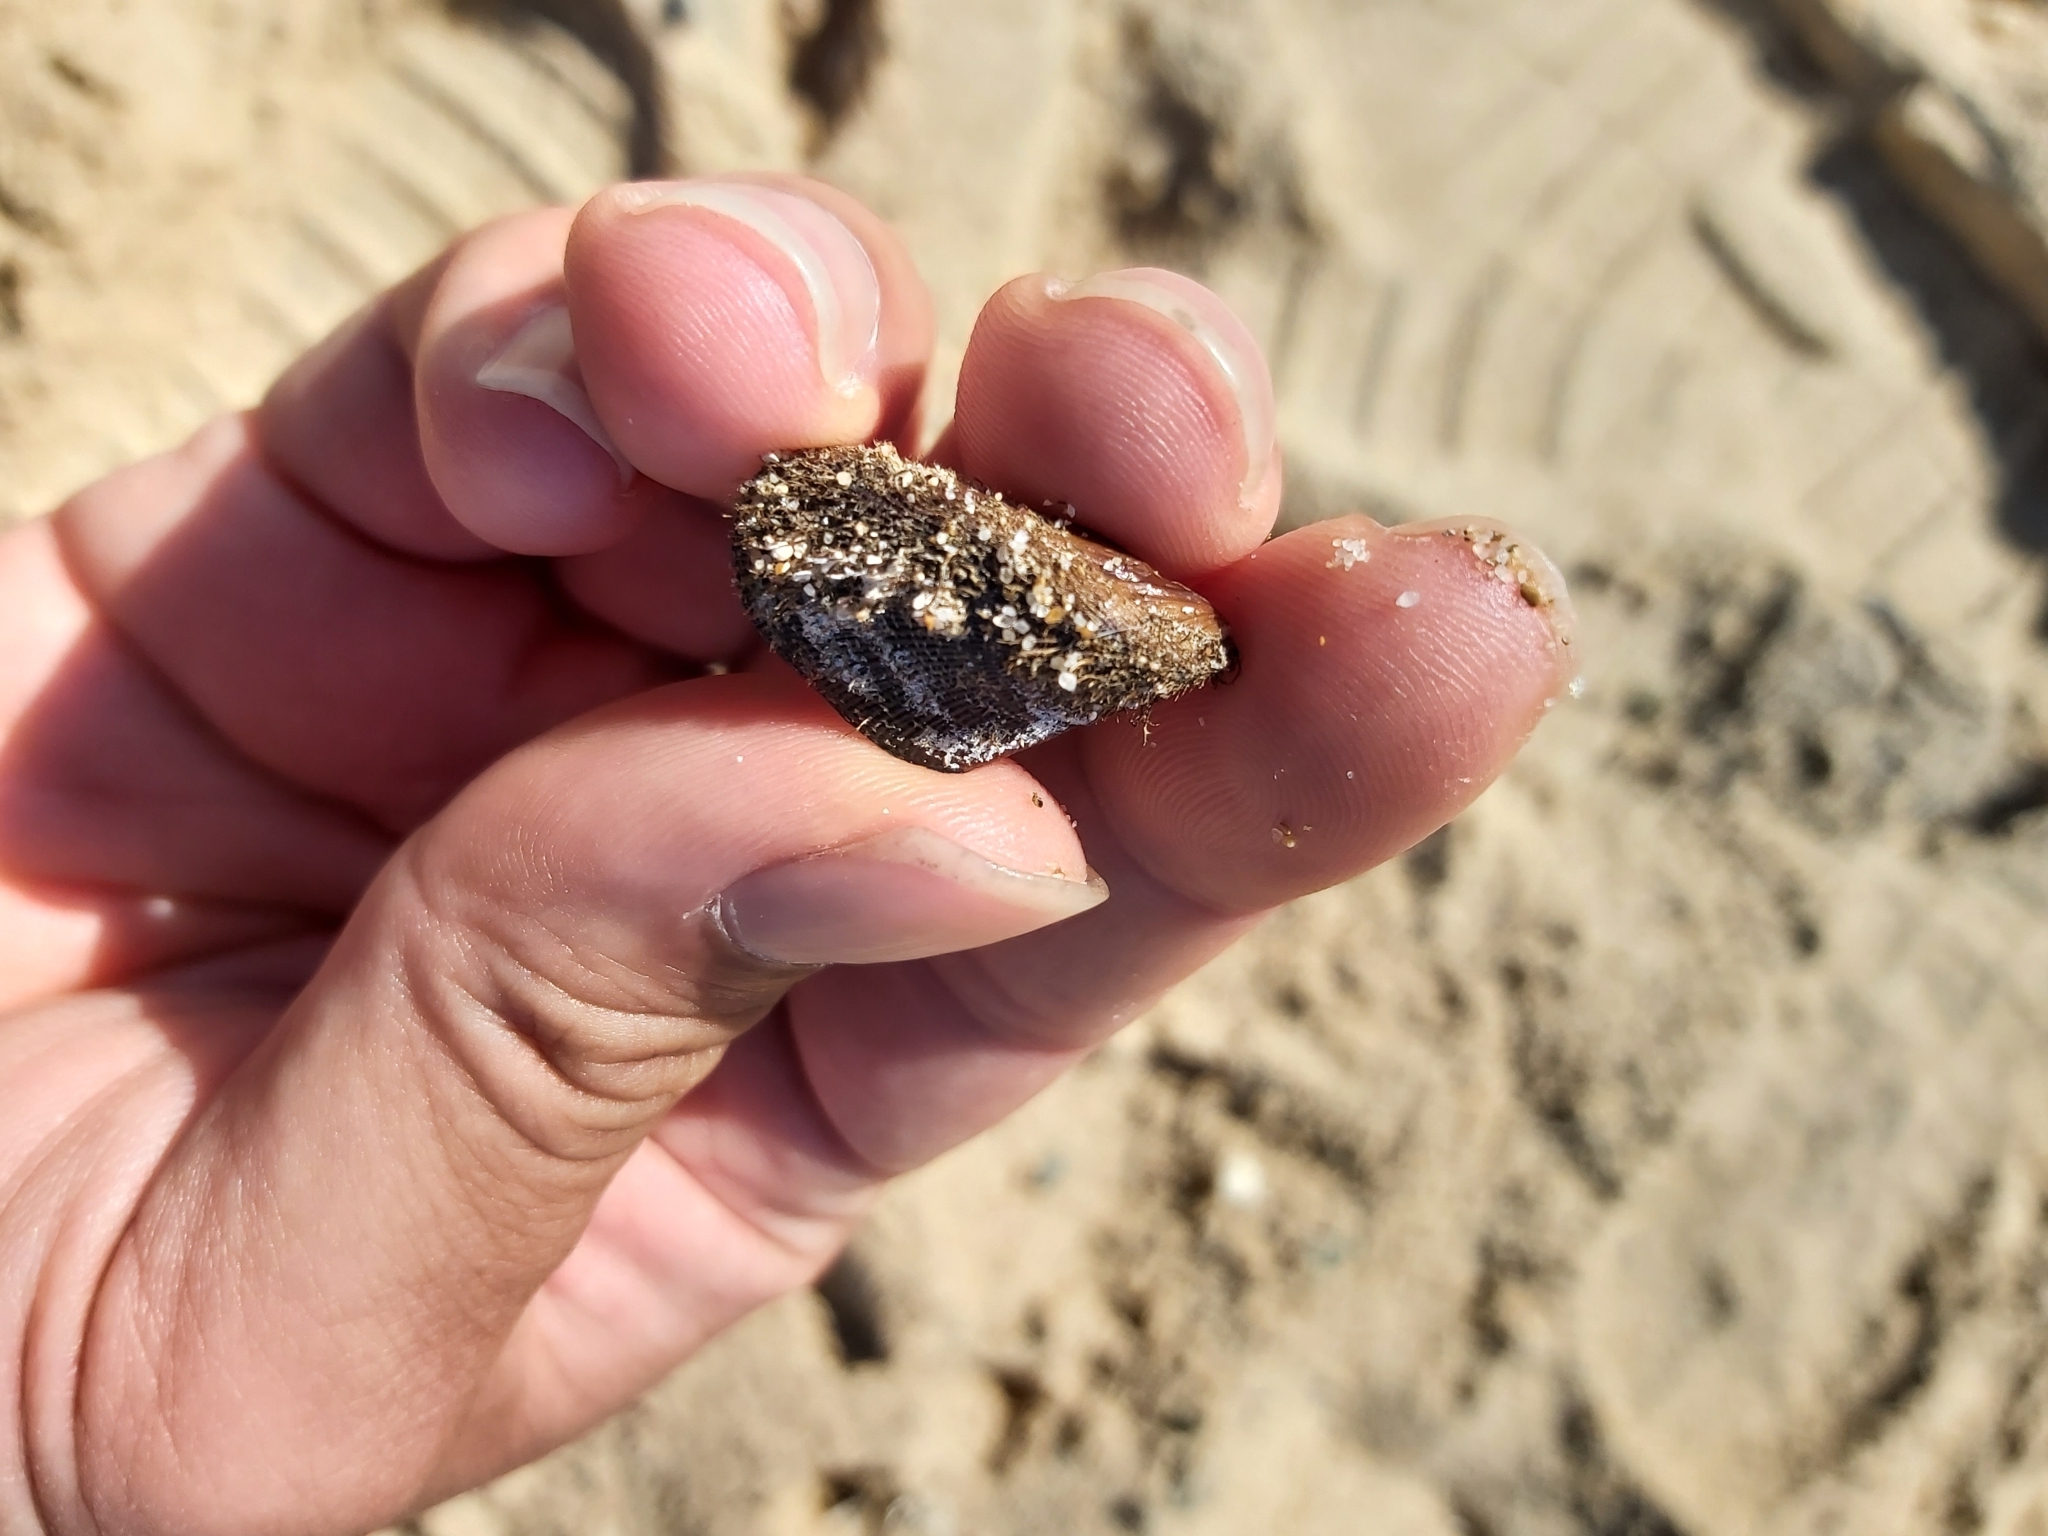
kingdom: Animalia
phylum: Mollusca
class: Bivalvia
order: Mytilida
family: Mytilidae
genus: Trichomya
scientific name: Trichomya hirsuta
